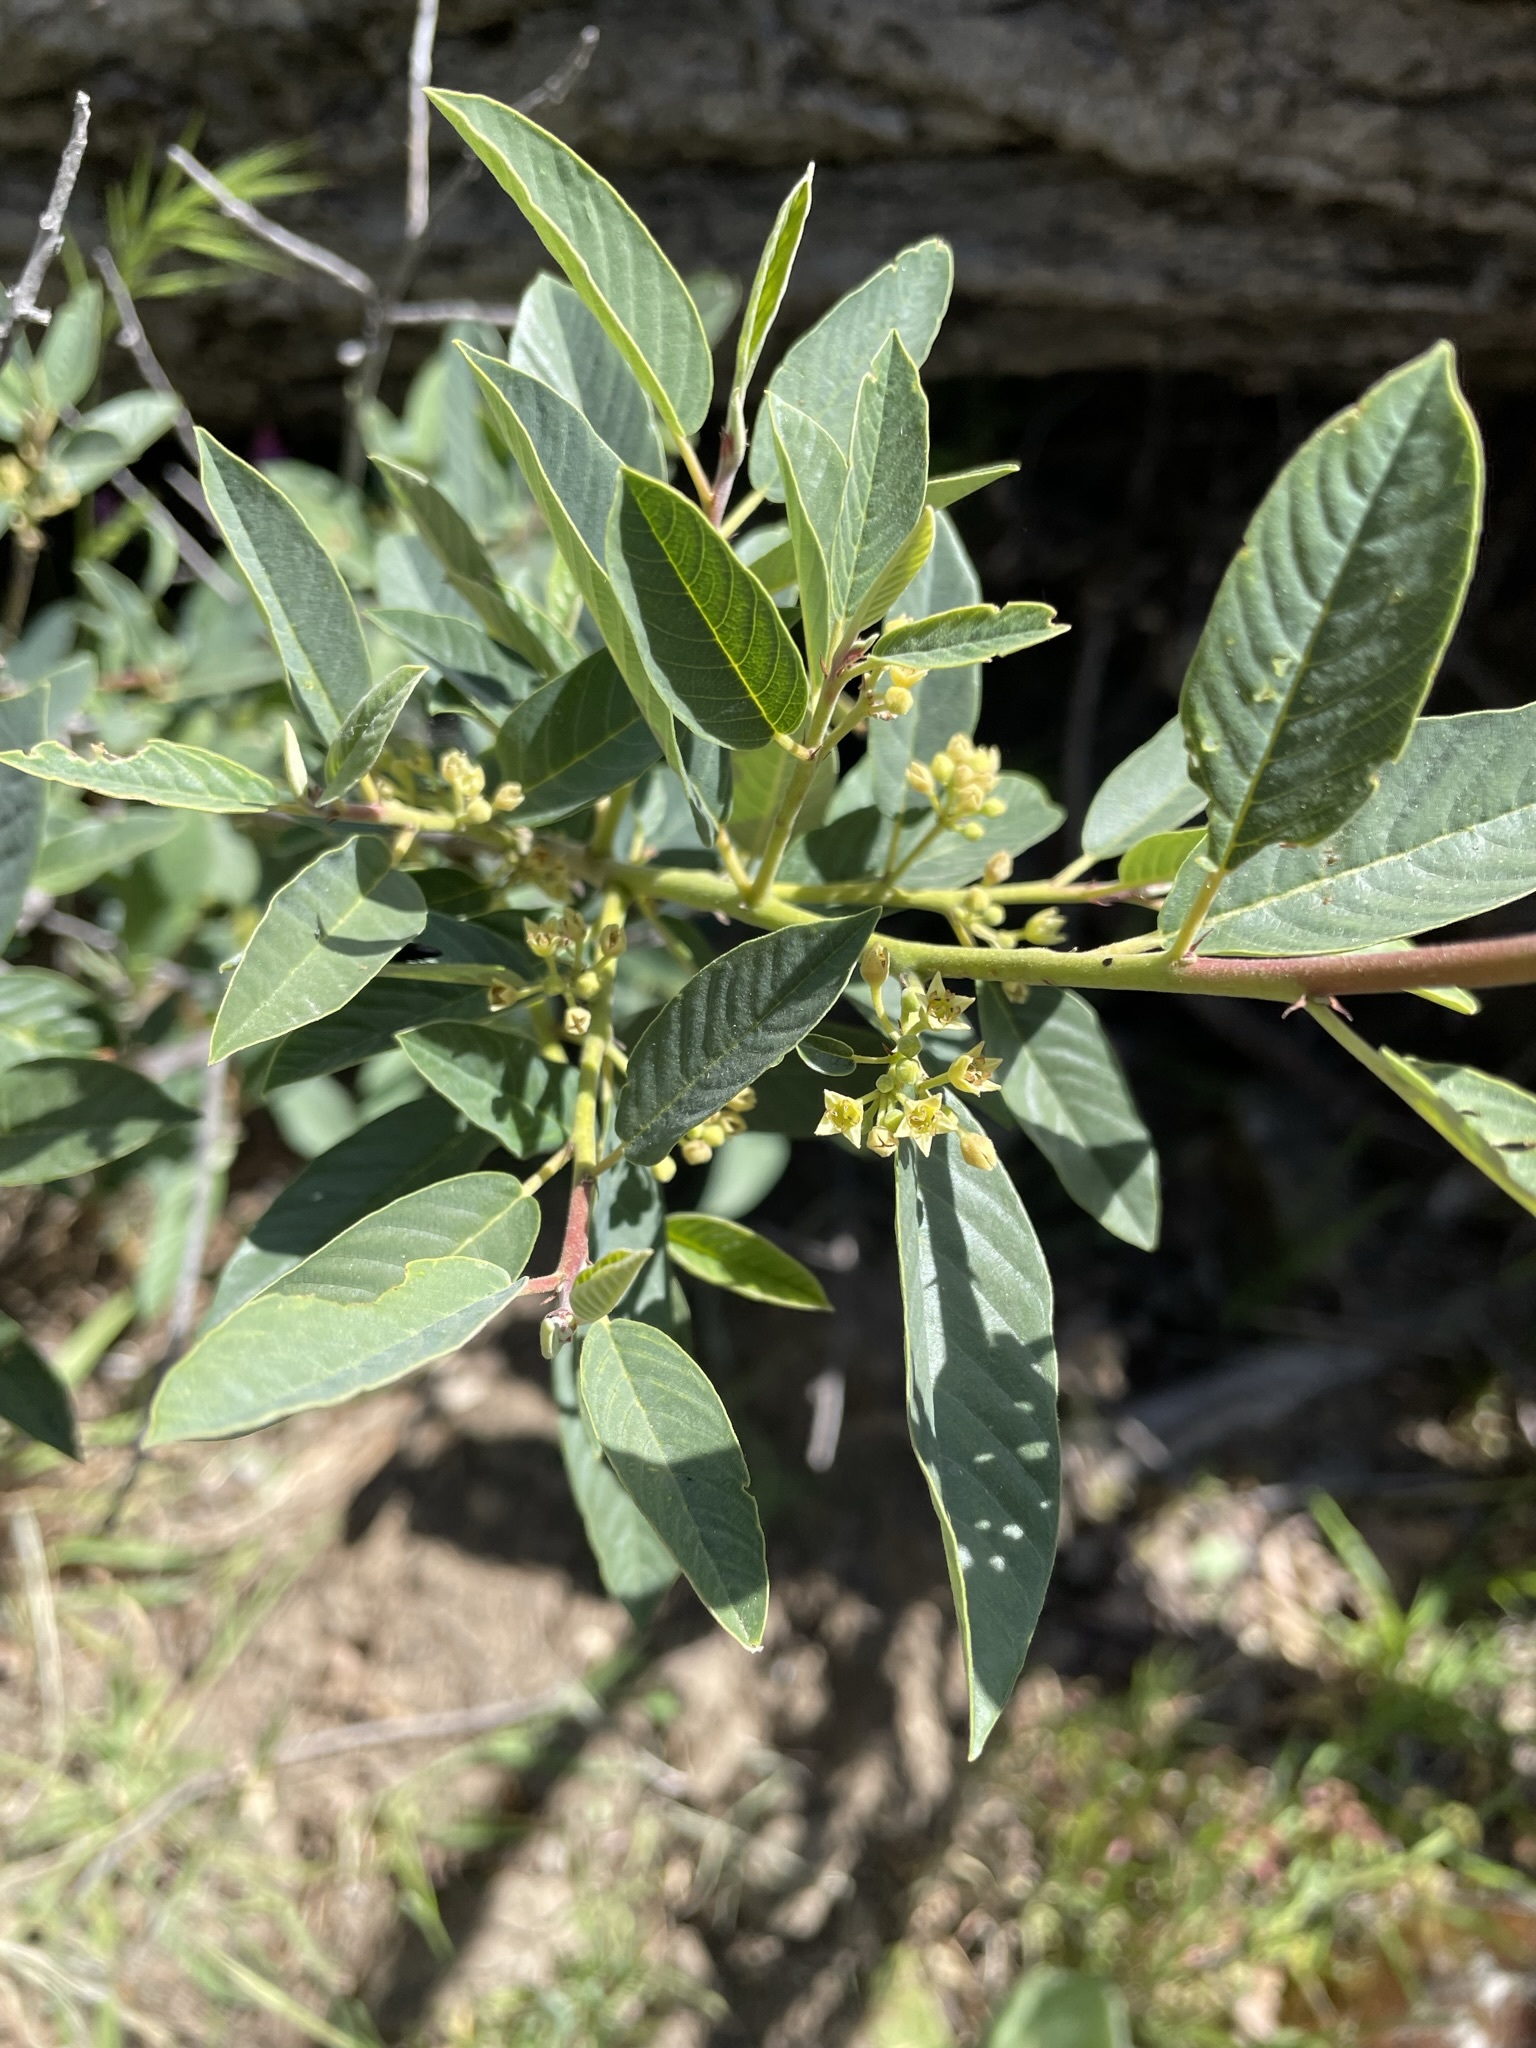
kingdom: Plantae
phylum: Tracheophyta
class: Magnoliopsida
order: Rosales
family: Rhamnaceae
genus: Frangula
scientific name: Frangula californica
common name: California buckthorn
